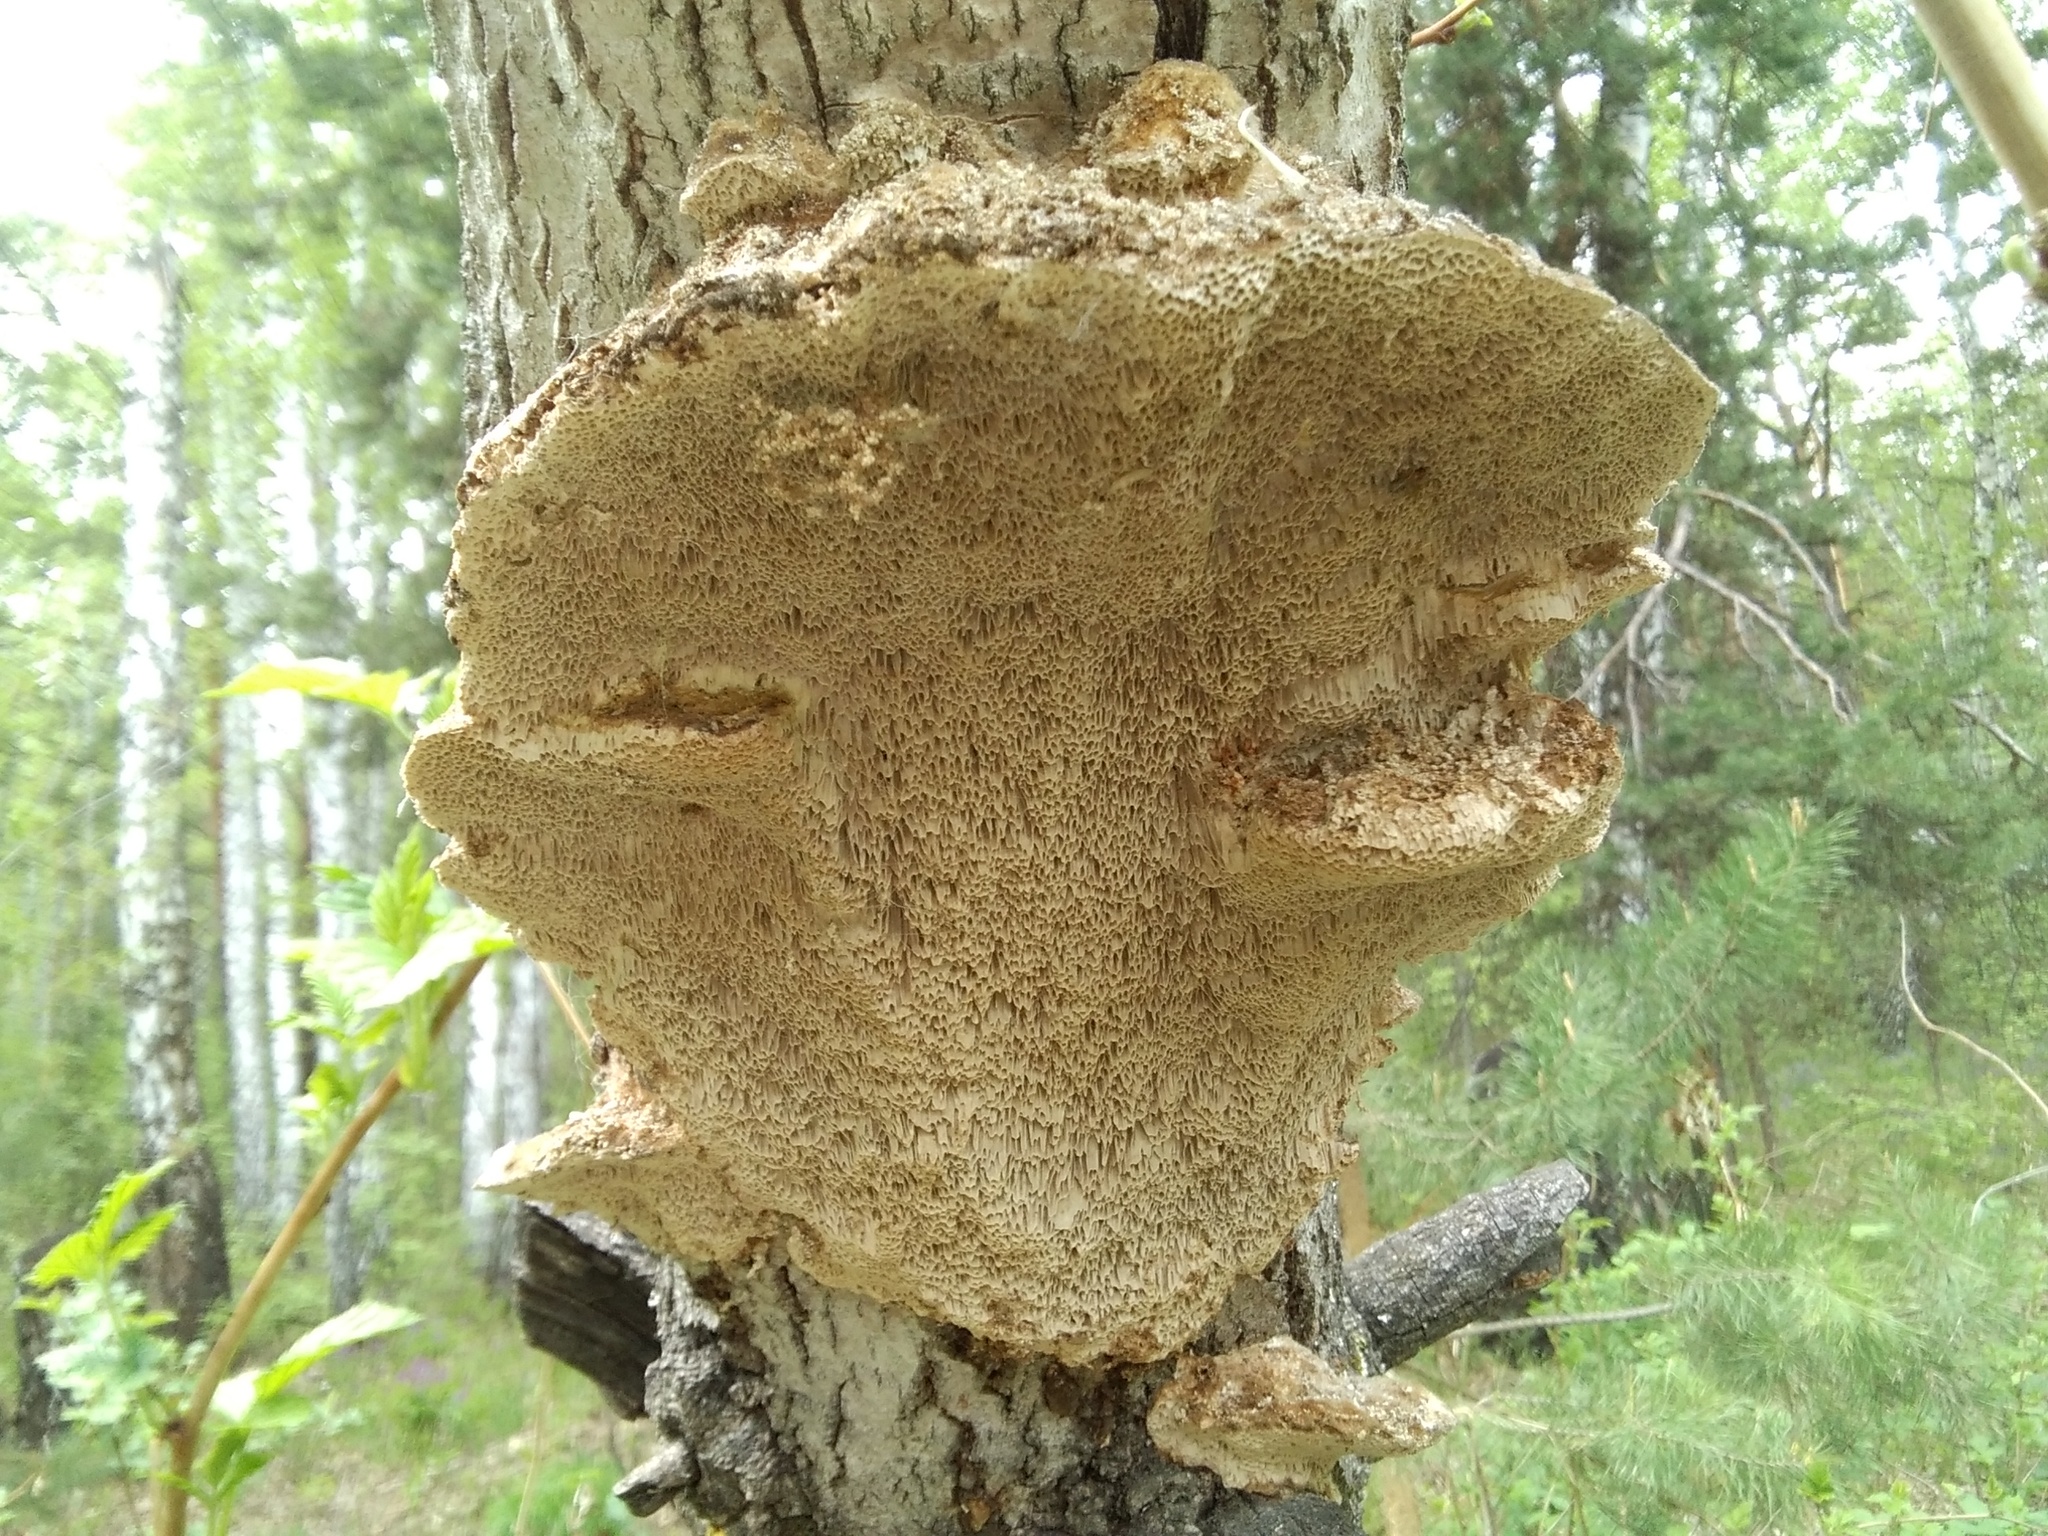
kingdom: Fungi
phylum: Basidiomycota
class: Agaricomycetes
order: Polyporales
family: Polyporaceae
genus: Trametes
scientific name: Trametes trogii
